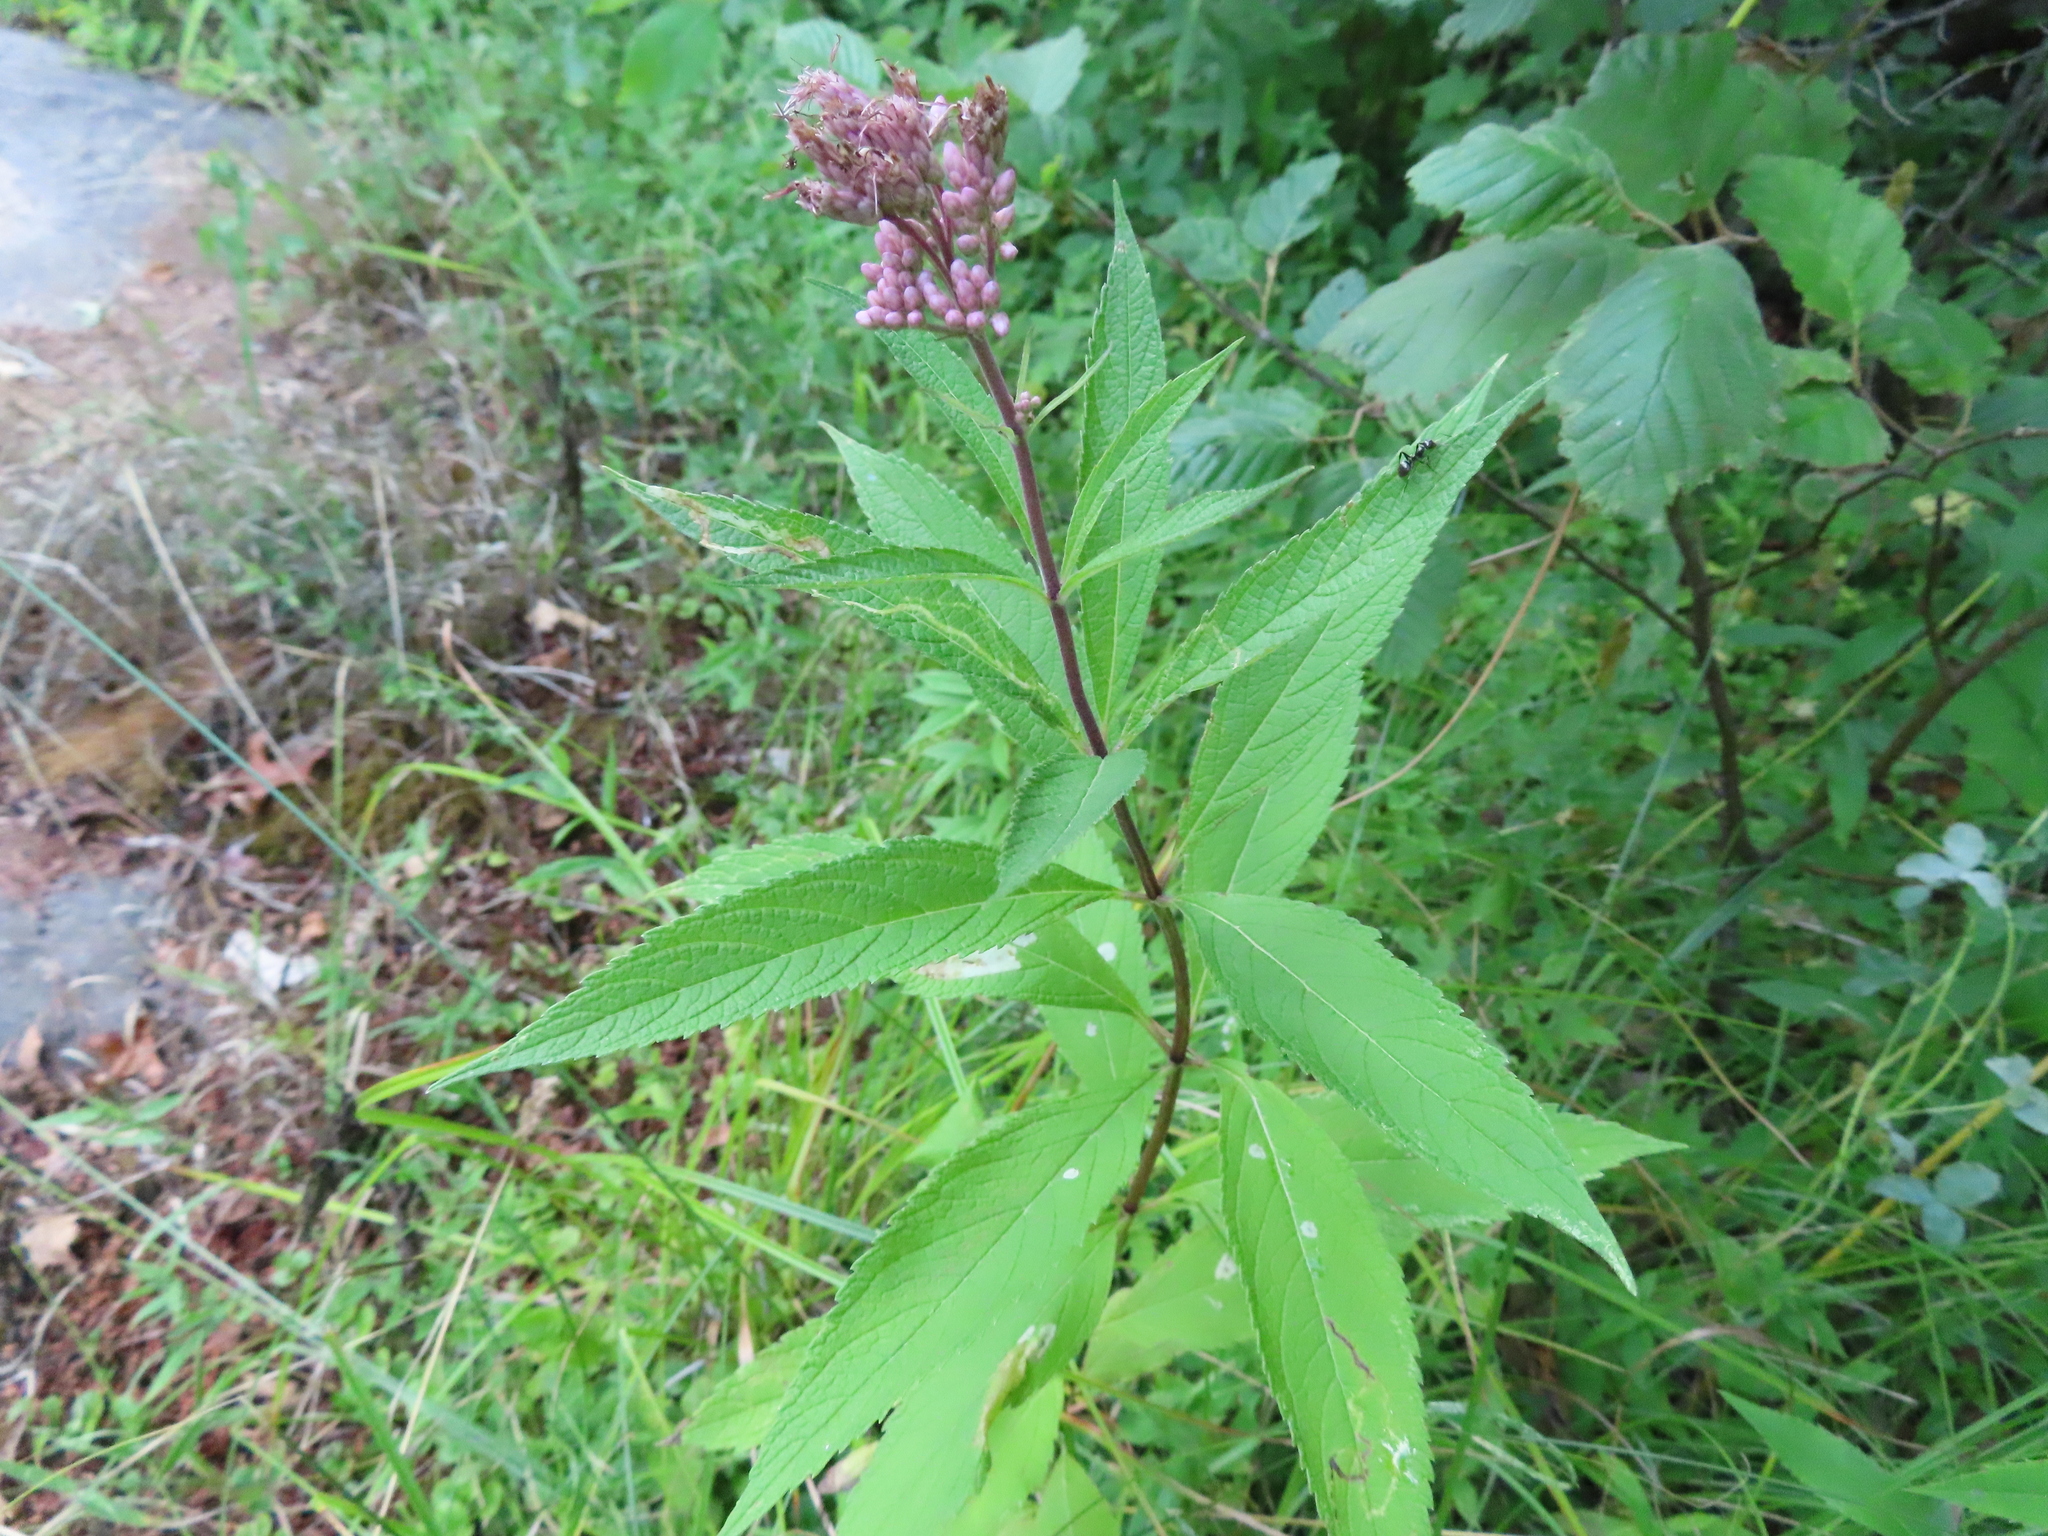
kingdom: Plantae
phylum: Tracheophyta
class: Magnoliopsida
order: Asterales
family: Asteraceae
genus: Eutrochium
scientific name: Eutrochium maculatum
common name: Spotted joe pye weed
